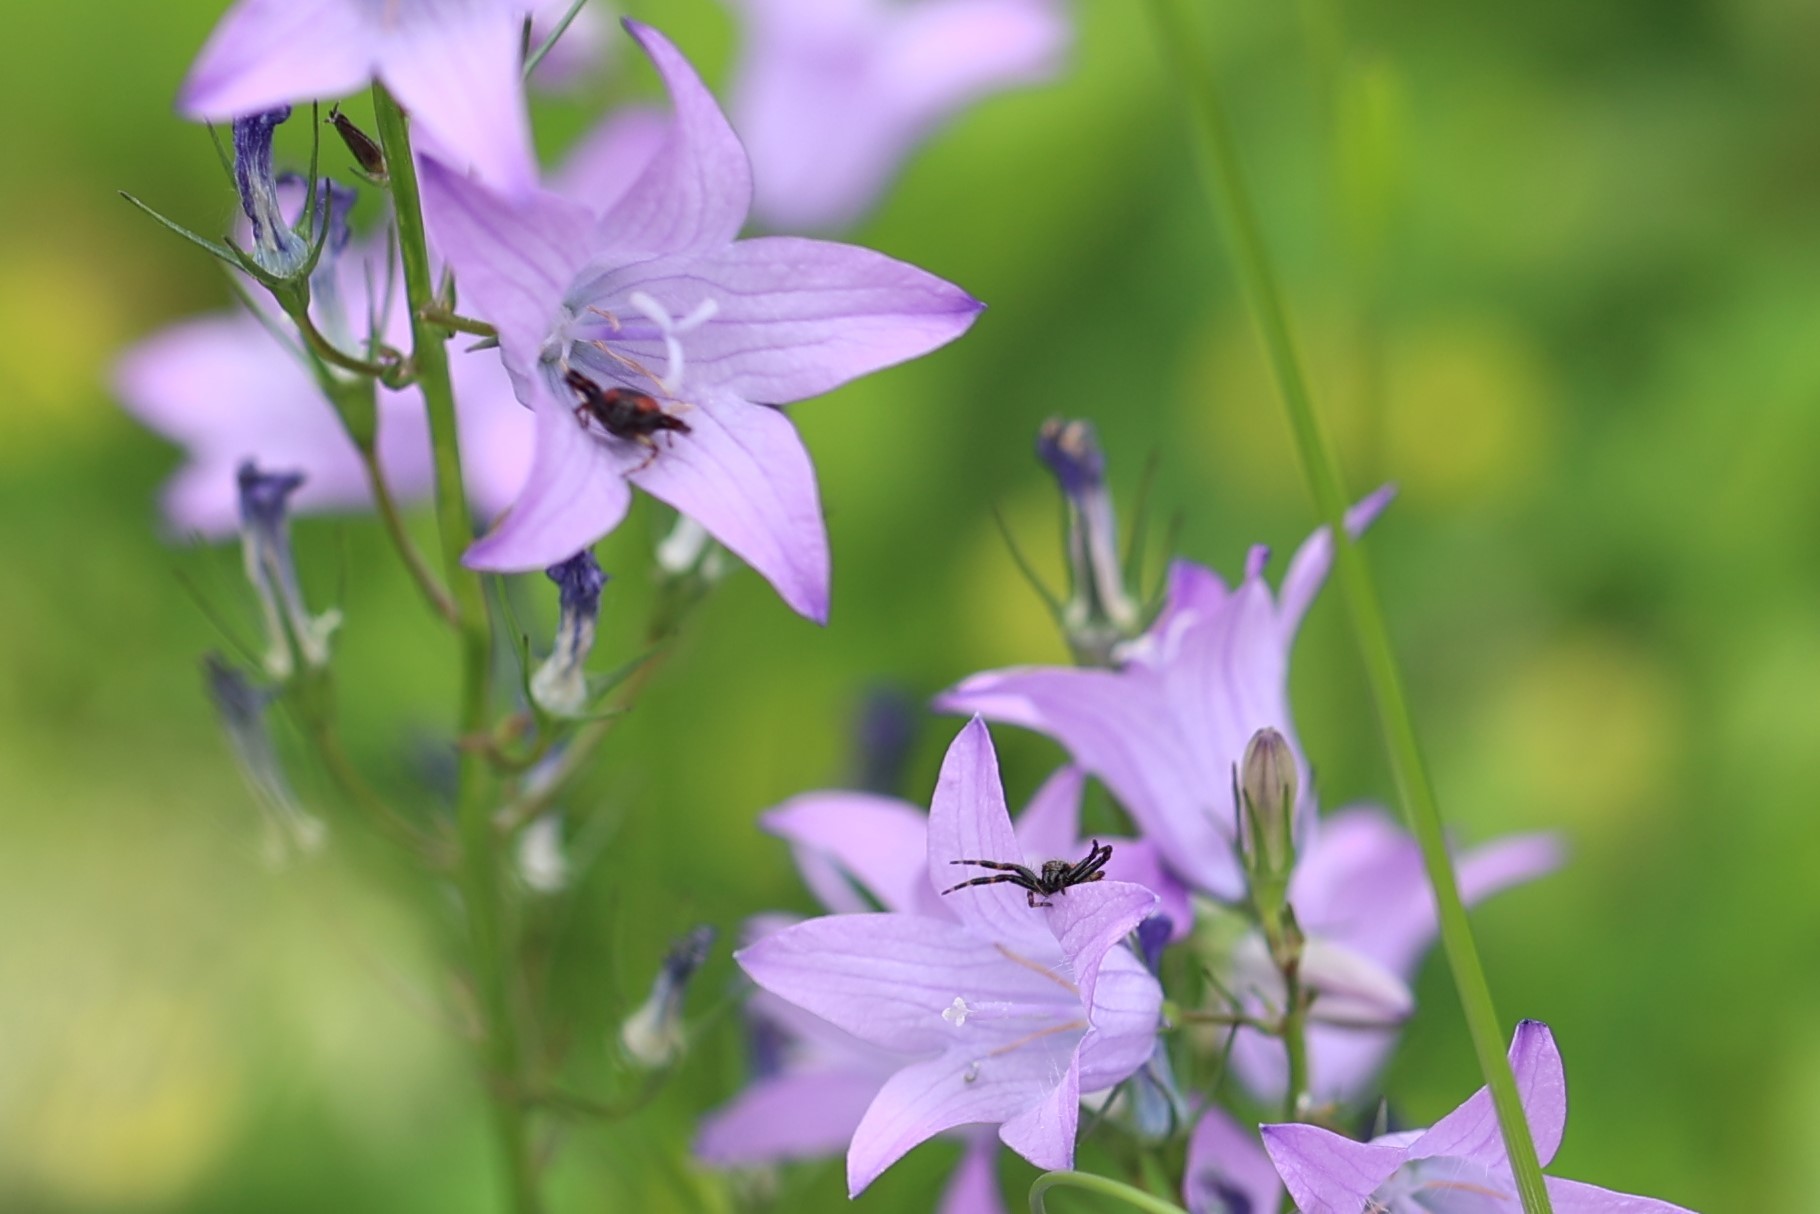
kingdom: Animalia
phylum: Arthropoda
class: Arachnida
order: Araneae
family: Thomisidae
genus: Synema
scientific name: Synema globosum
